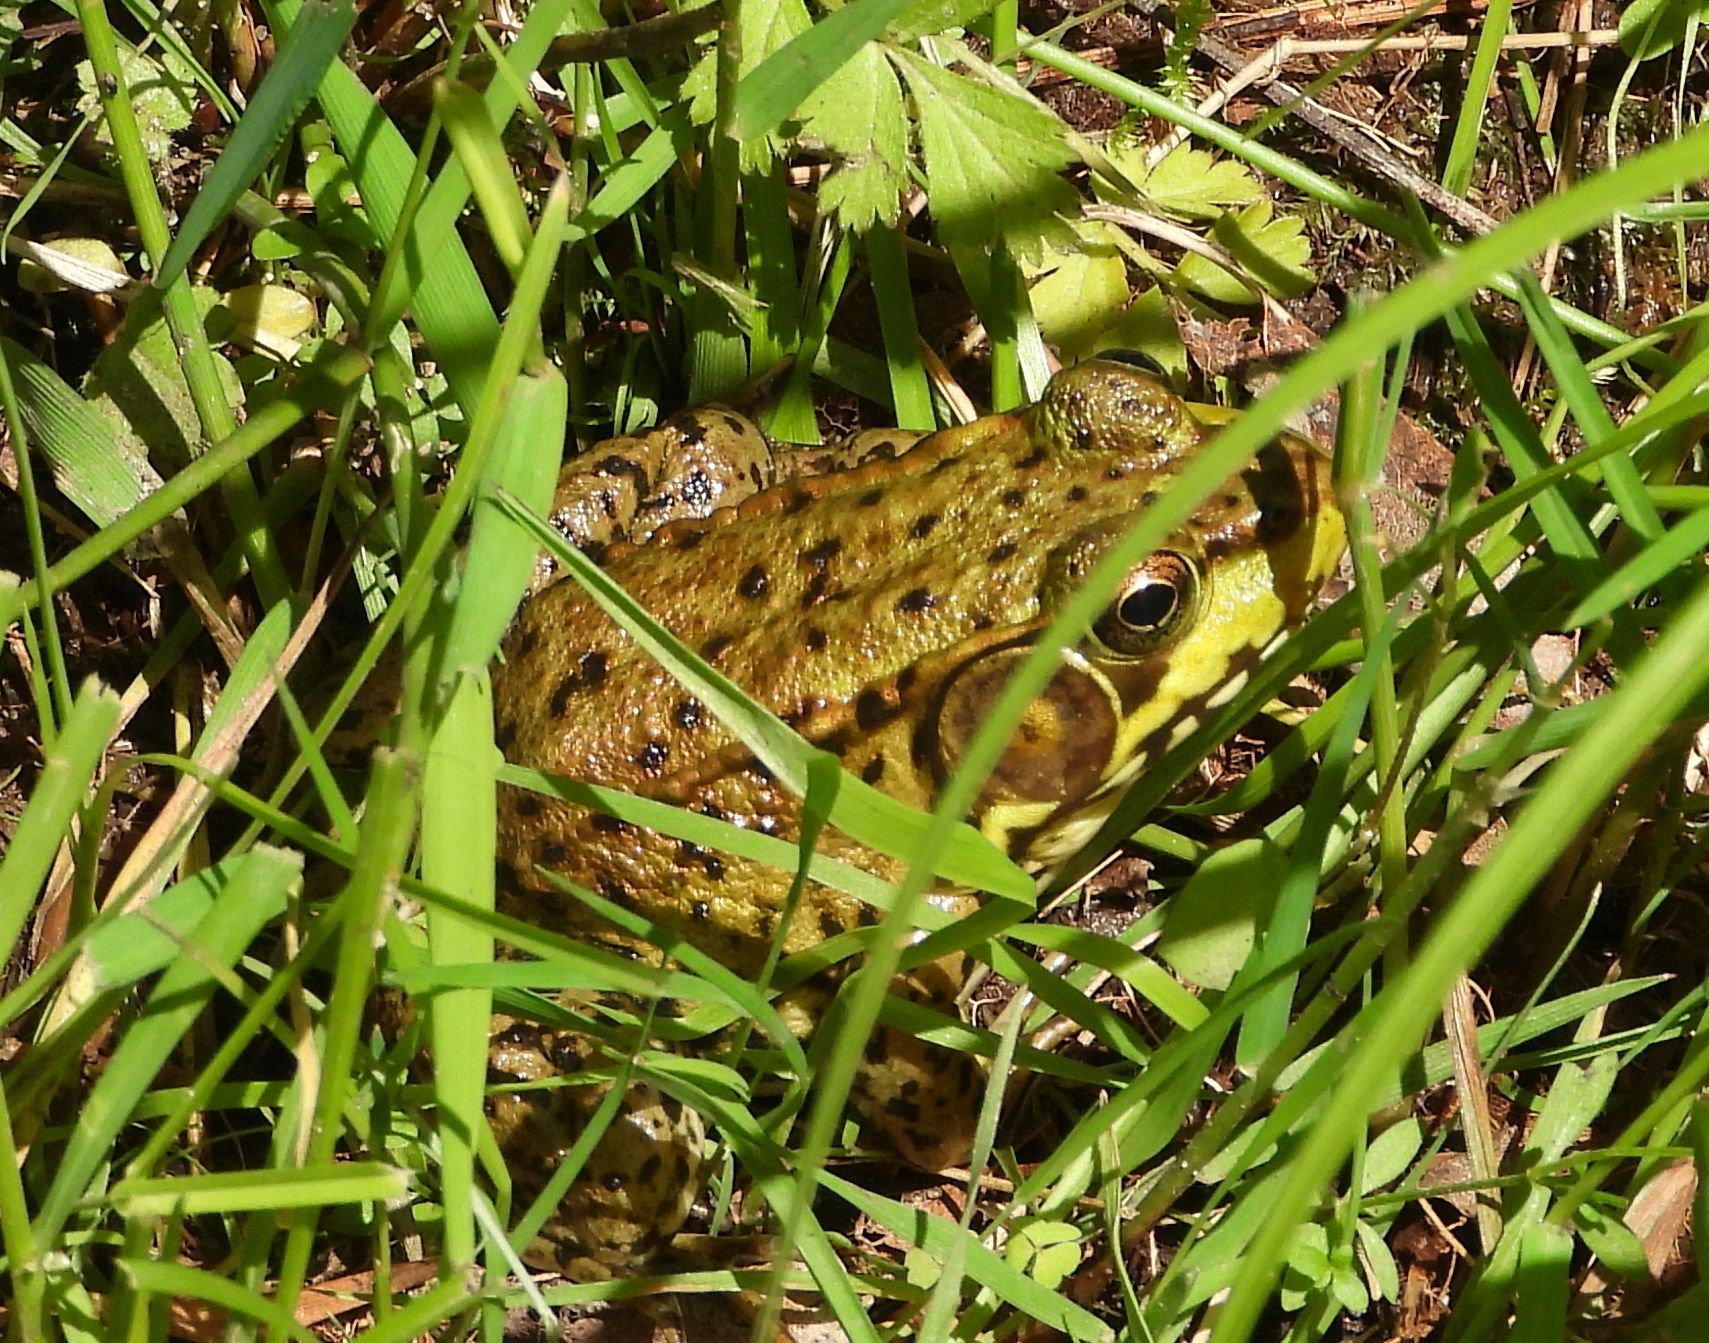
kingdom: Animalia
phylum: Chordata
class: Amphibia
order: Anura
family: Ranidae
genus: Lithobates
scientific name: Lithobates clamitans
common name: Green frog
